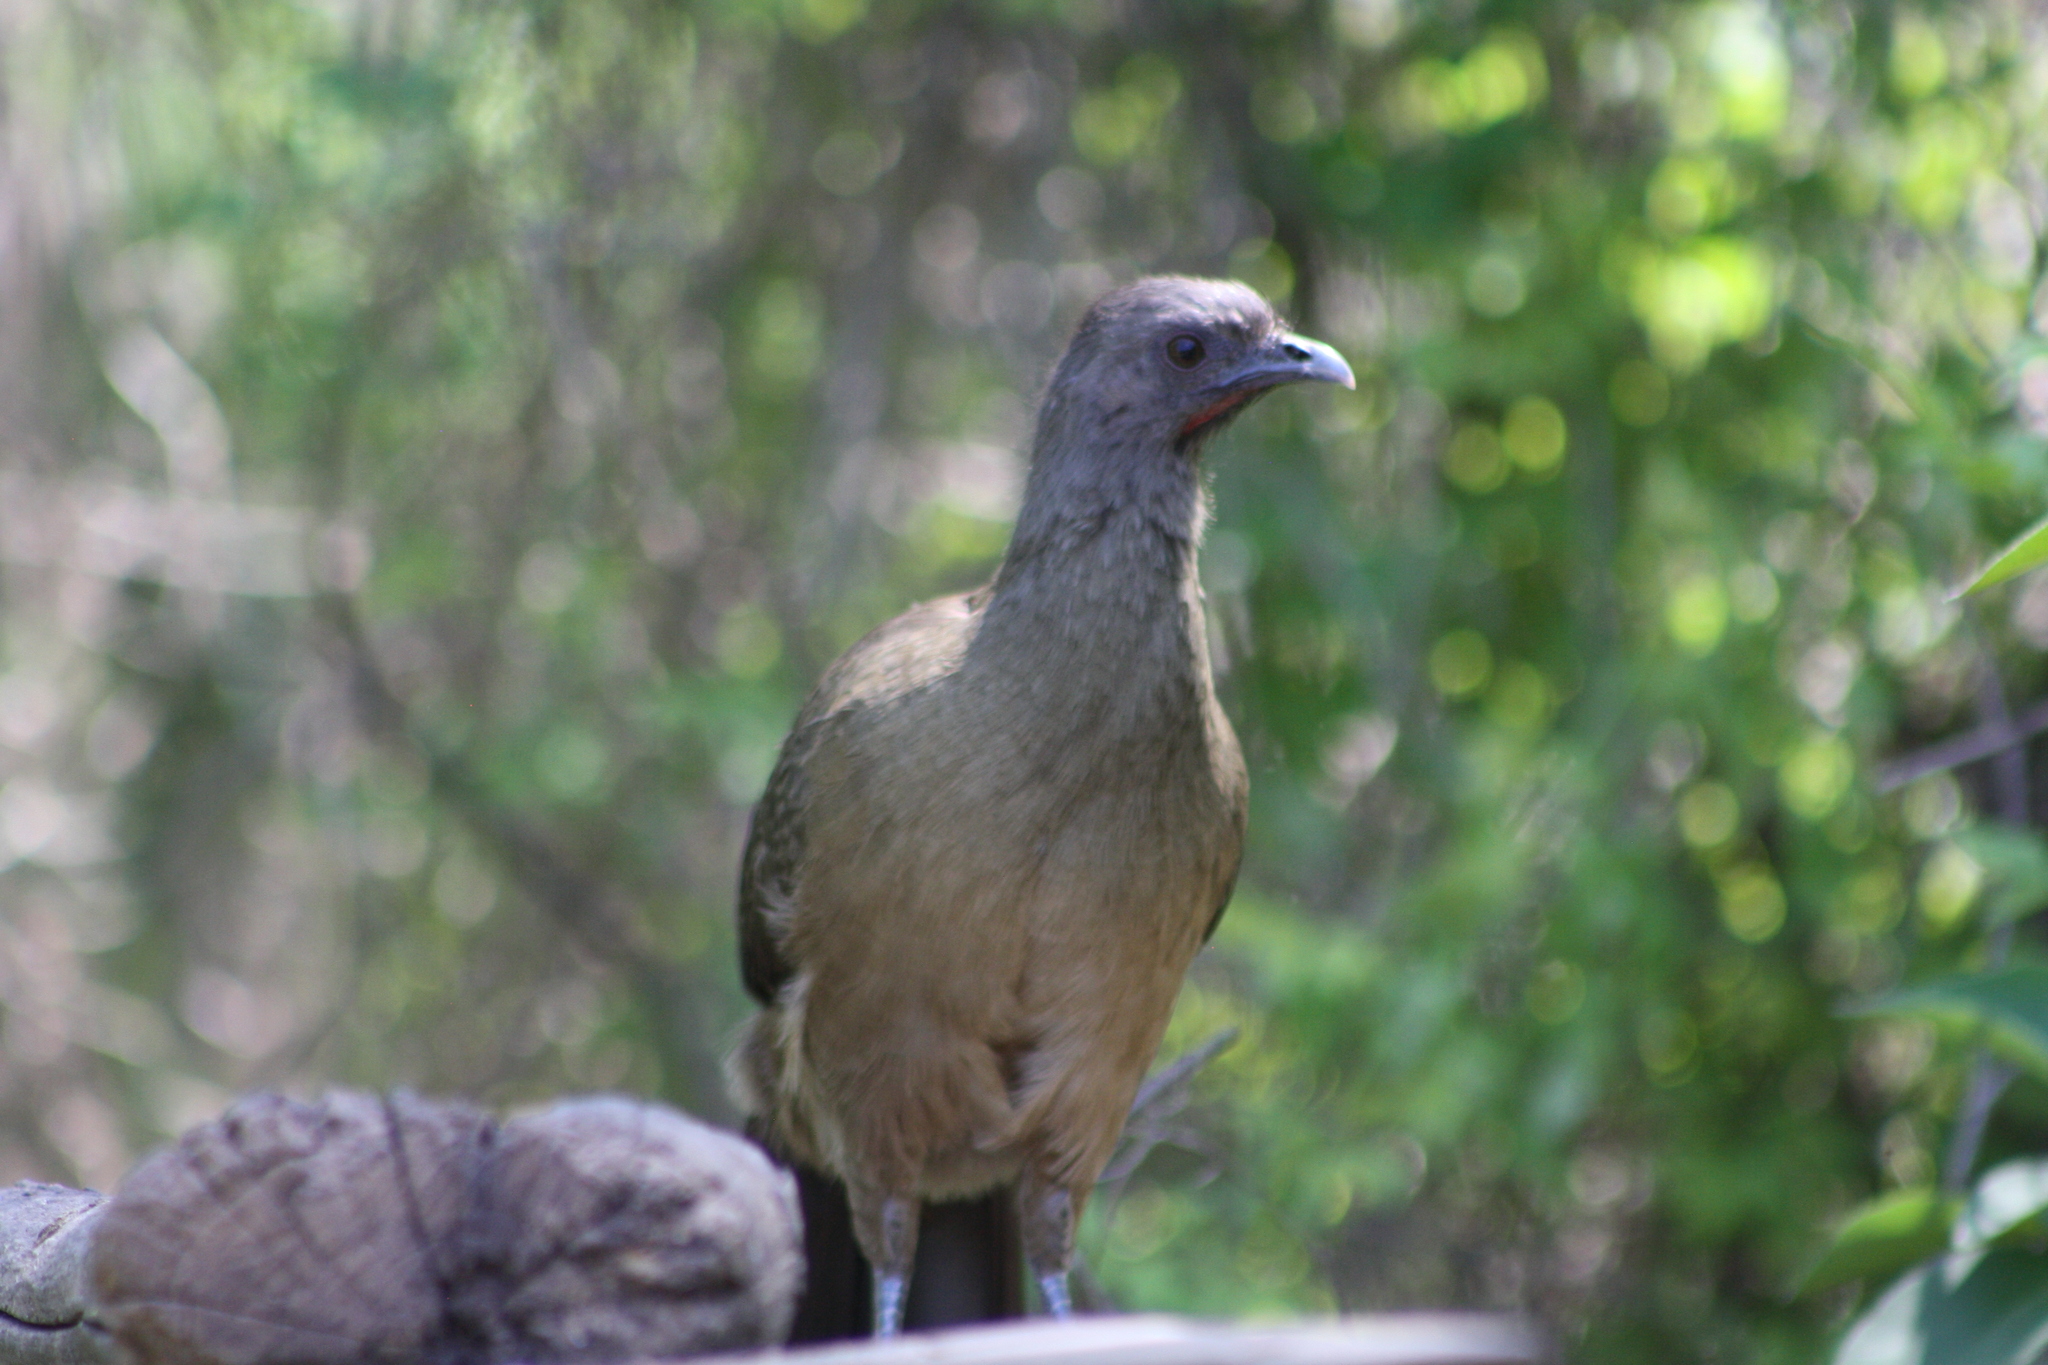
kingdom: Animalia
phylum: Chordata
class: Aves
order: Galliformes
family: Cracidae
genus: Ortalis
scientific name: Ortalis vetula
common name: Plain chachalaca
